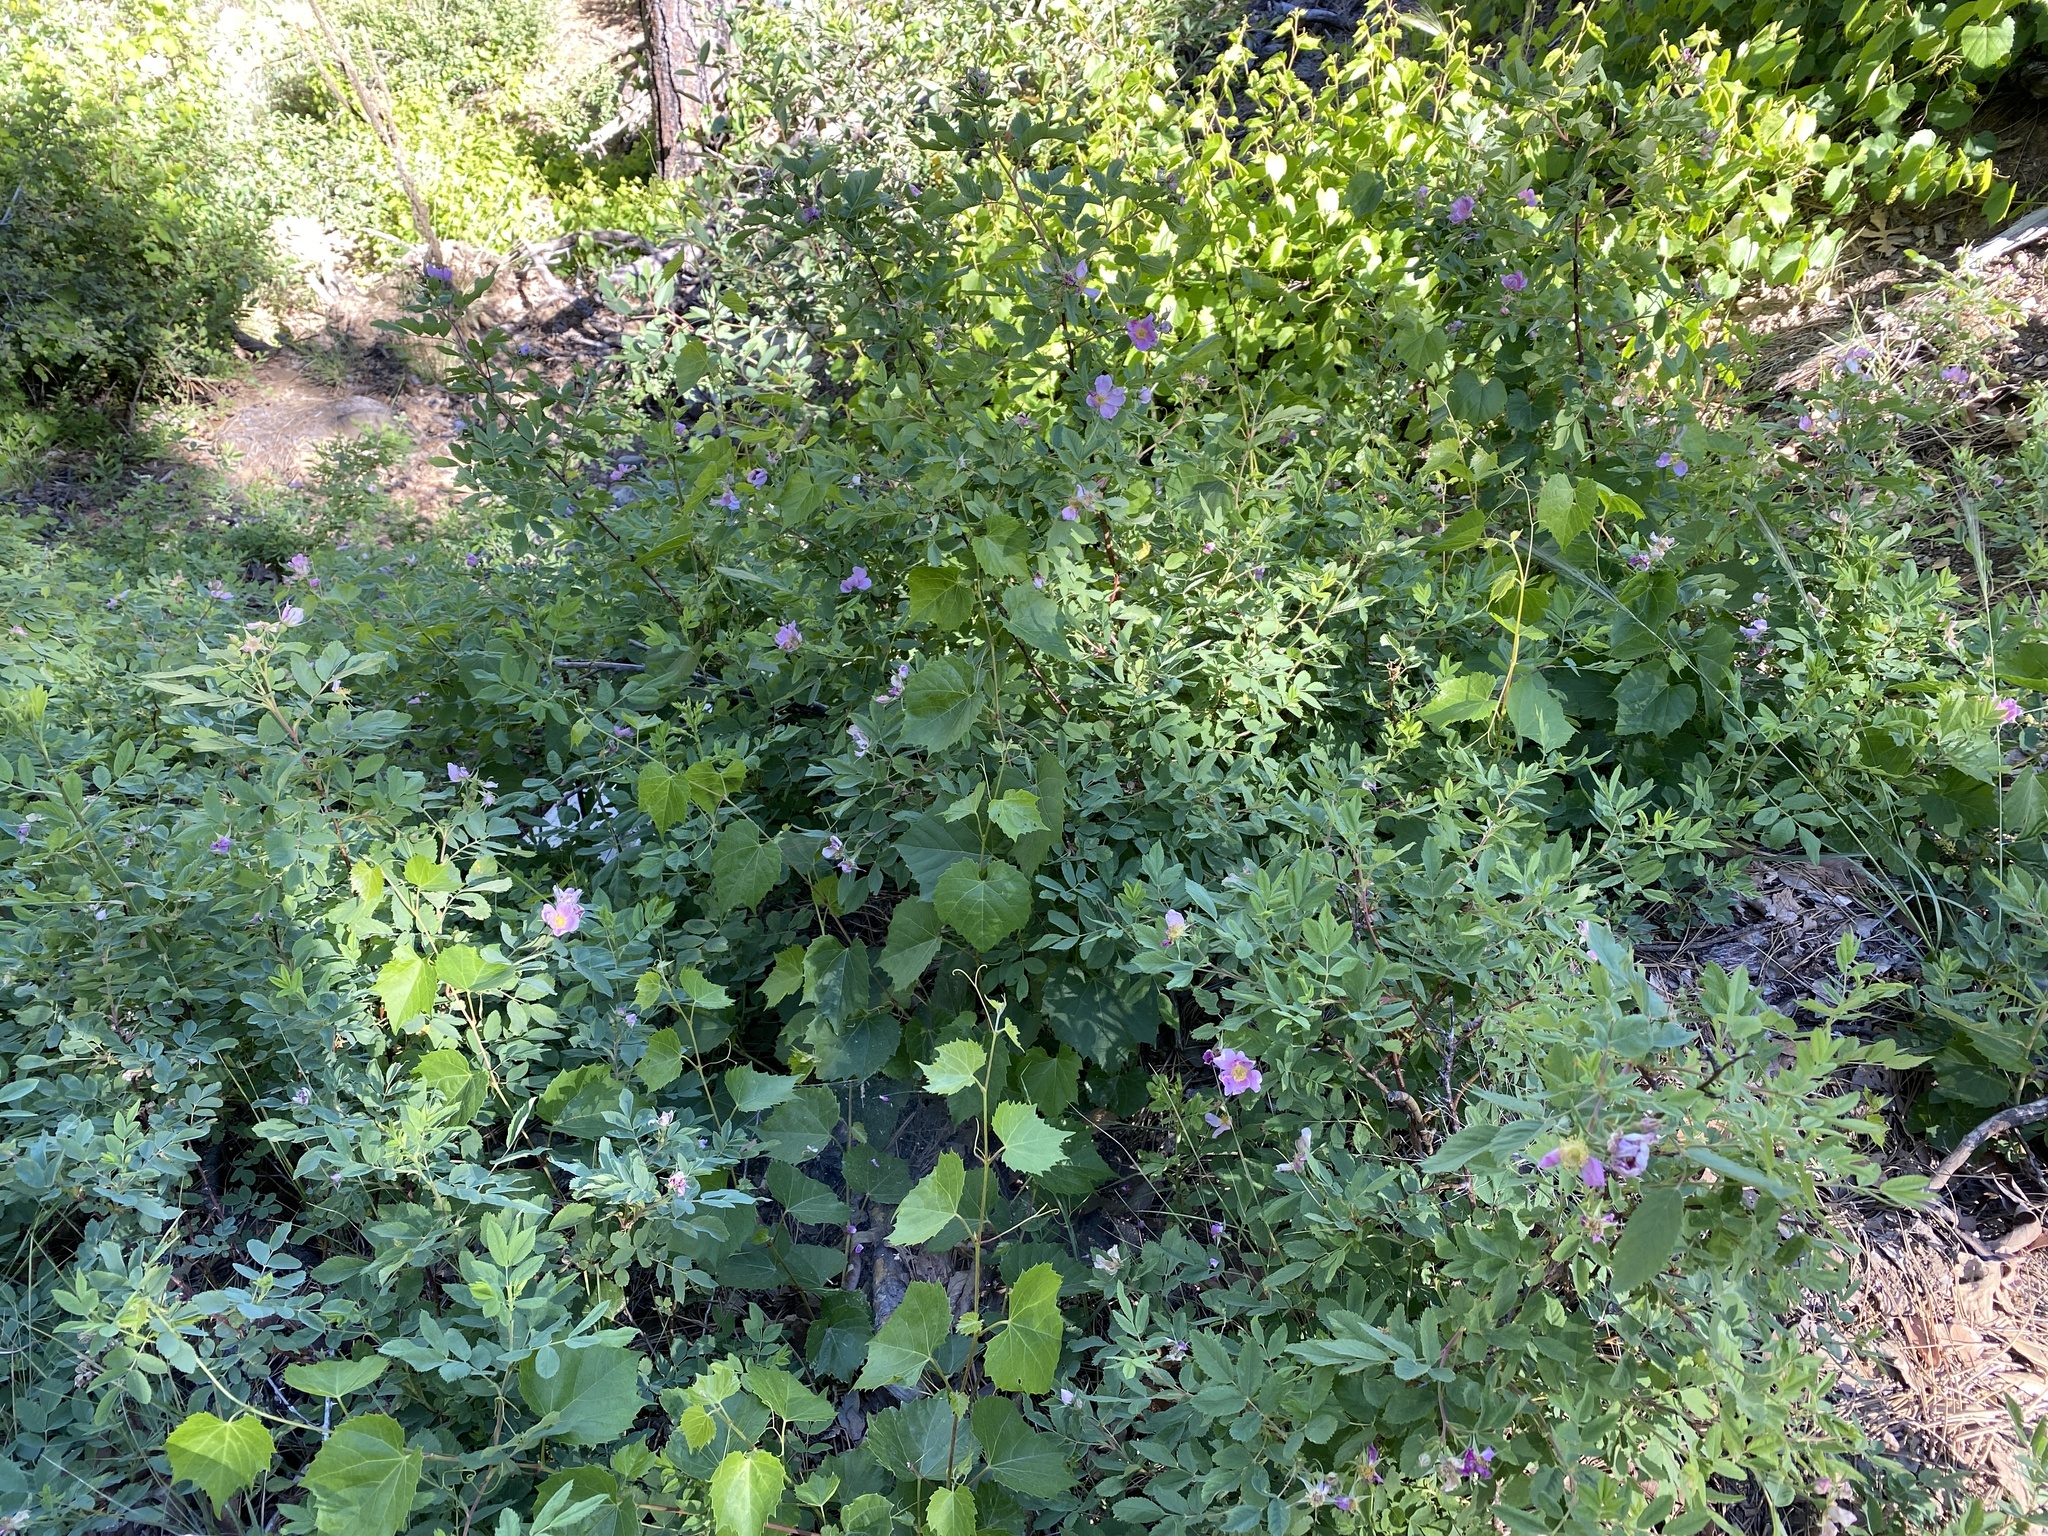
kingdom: Plantae
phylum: Tracheophyta
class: Magnoliopsida
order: Rosales
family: Rosaceae
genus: Rosa
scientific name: Rosa woodsii
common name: Woods's rose
